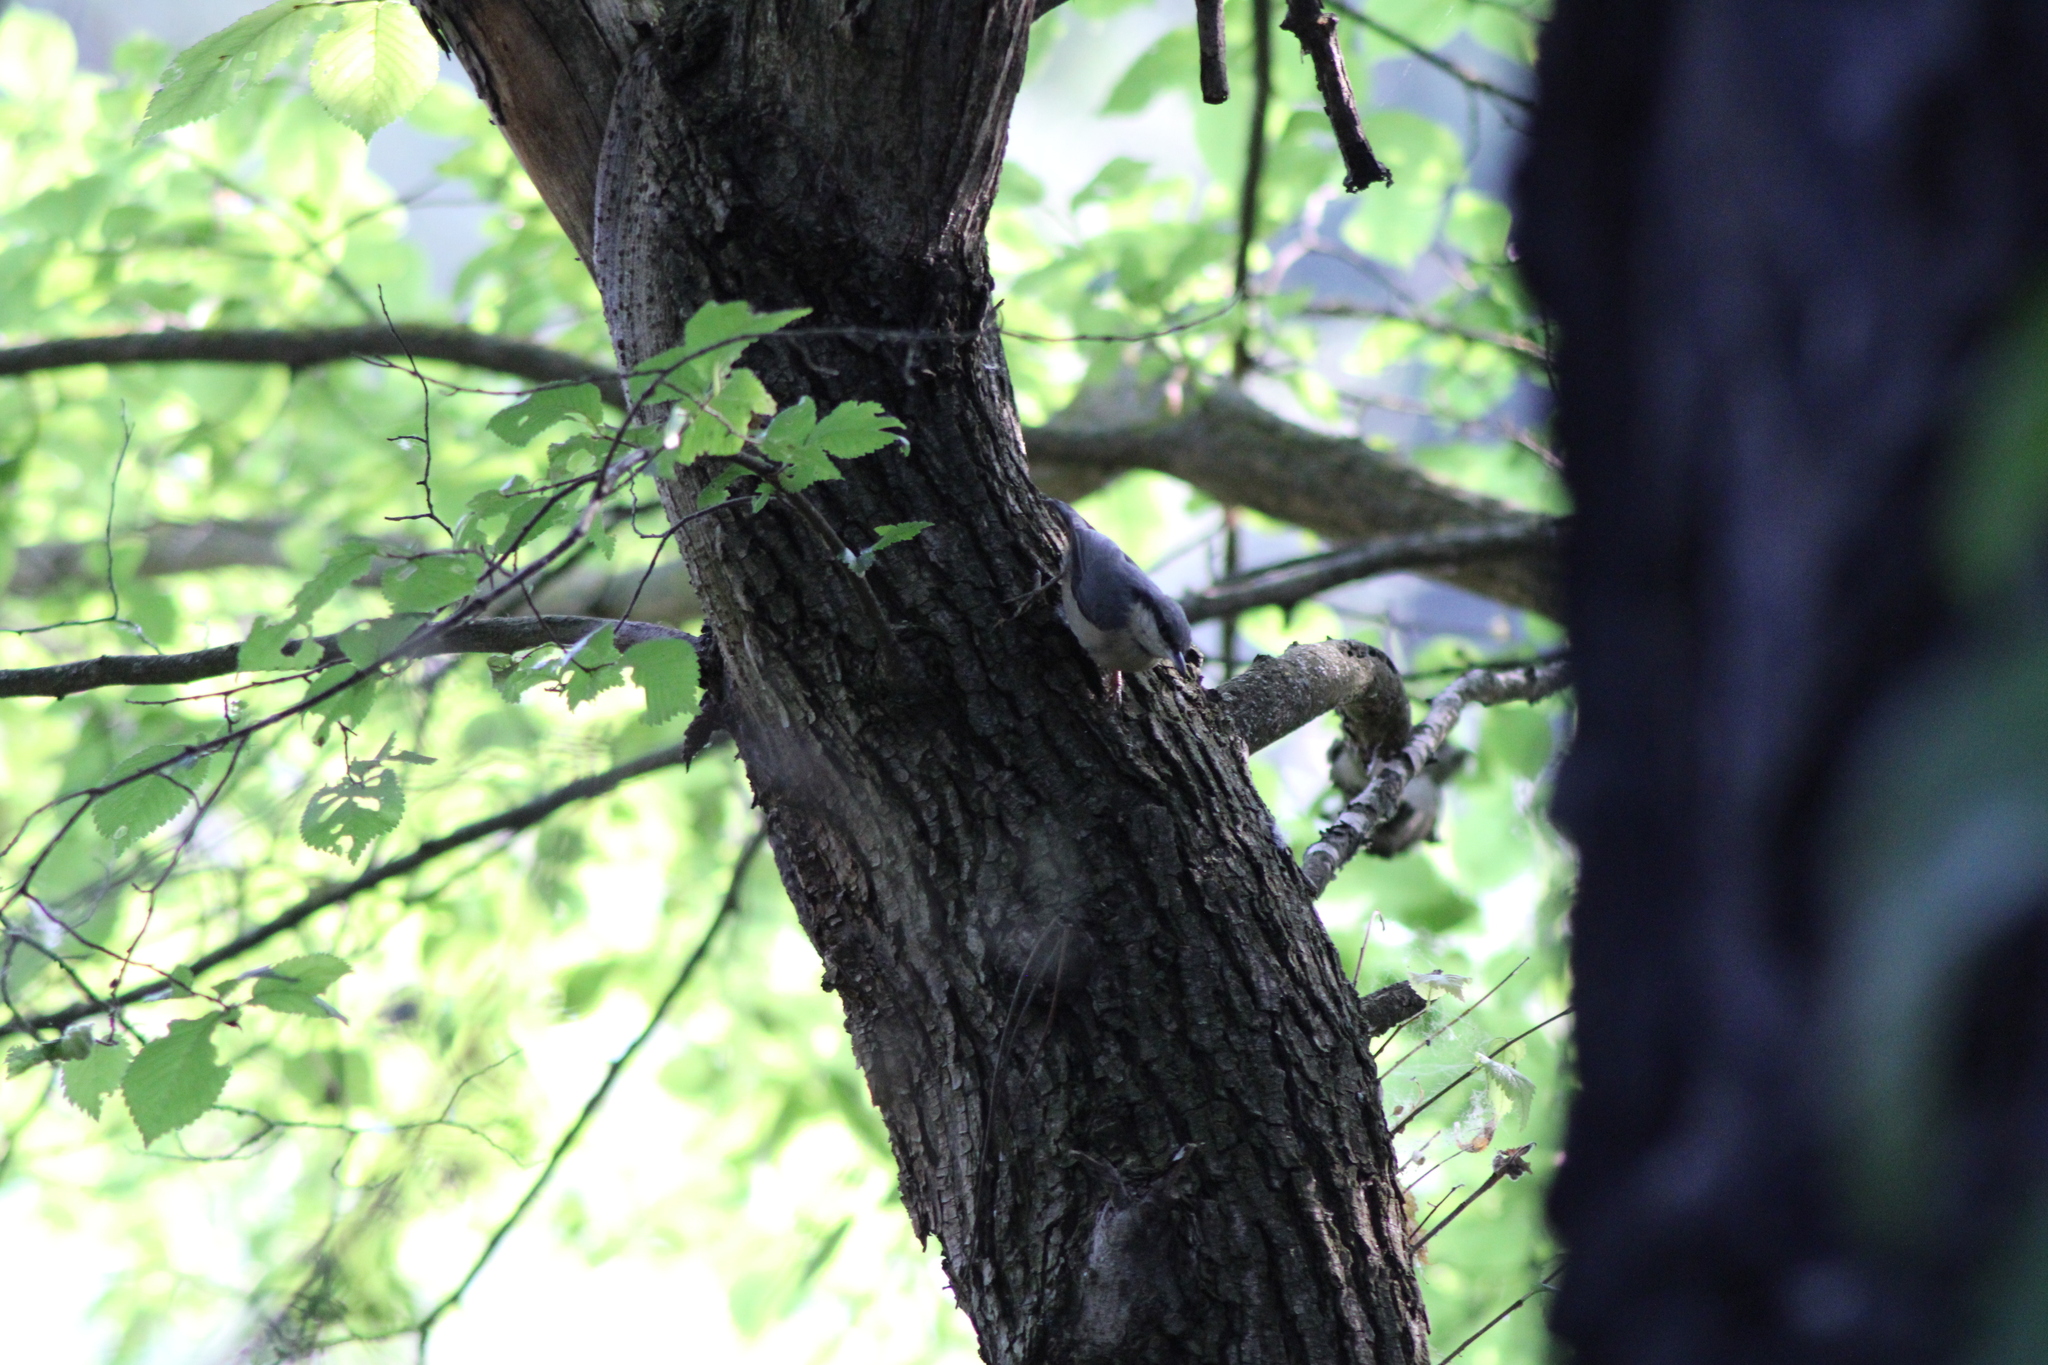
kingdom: Animalia
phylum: Chordata
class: Aves
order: Passeriformes
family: Sittidae
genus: Sitta
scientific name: Sitta europaea
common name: Eurasian nuthatch
